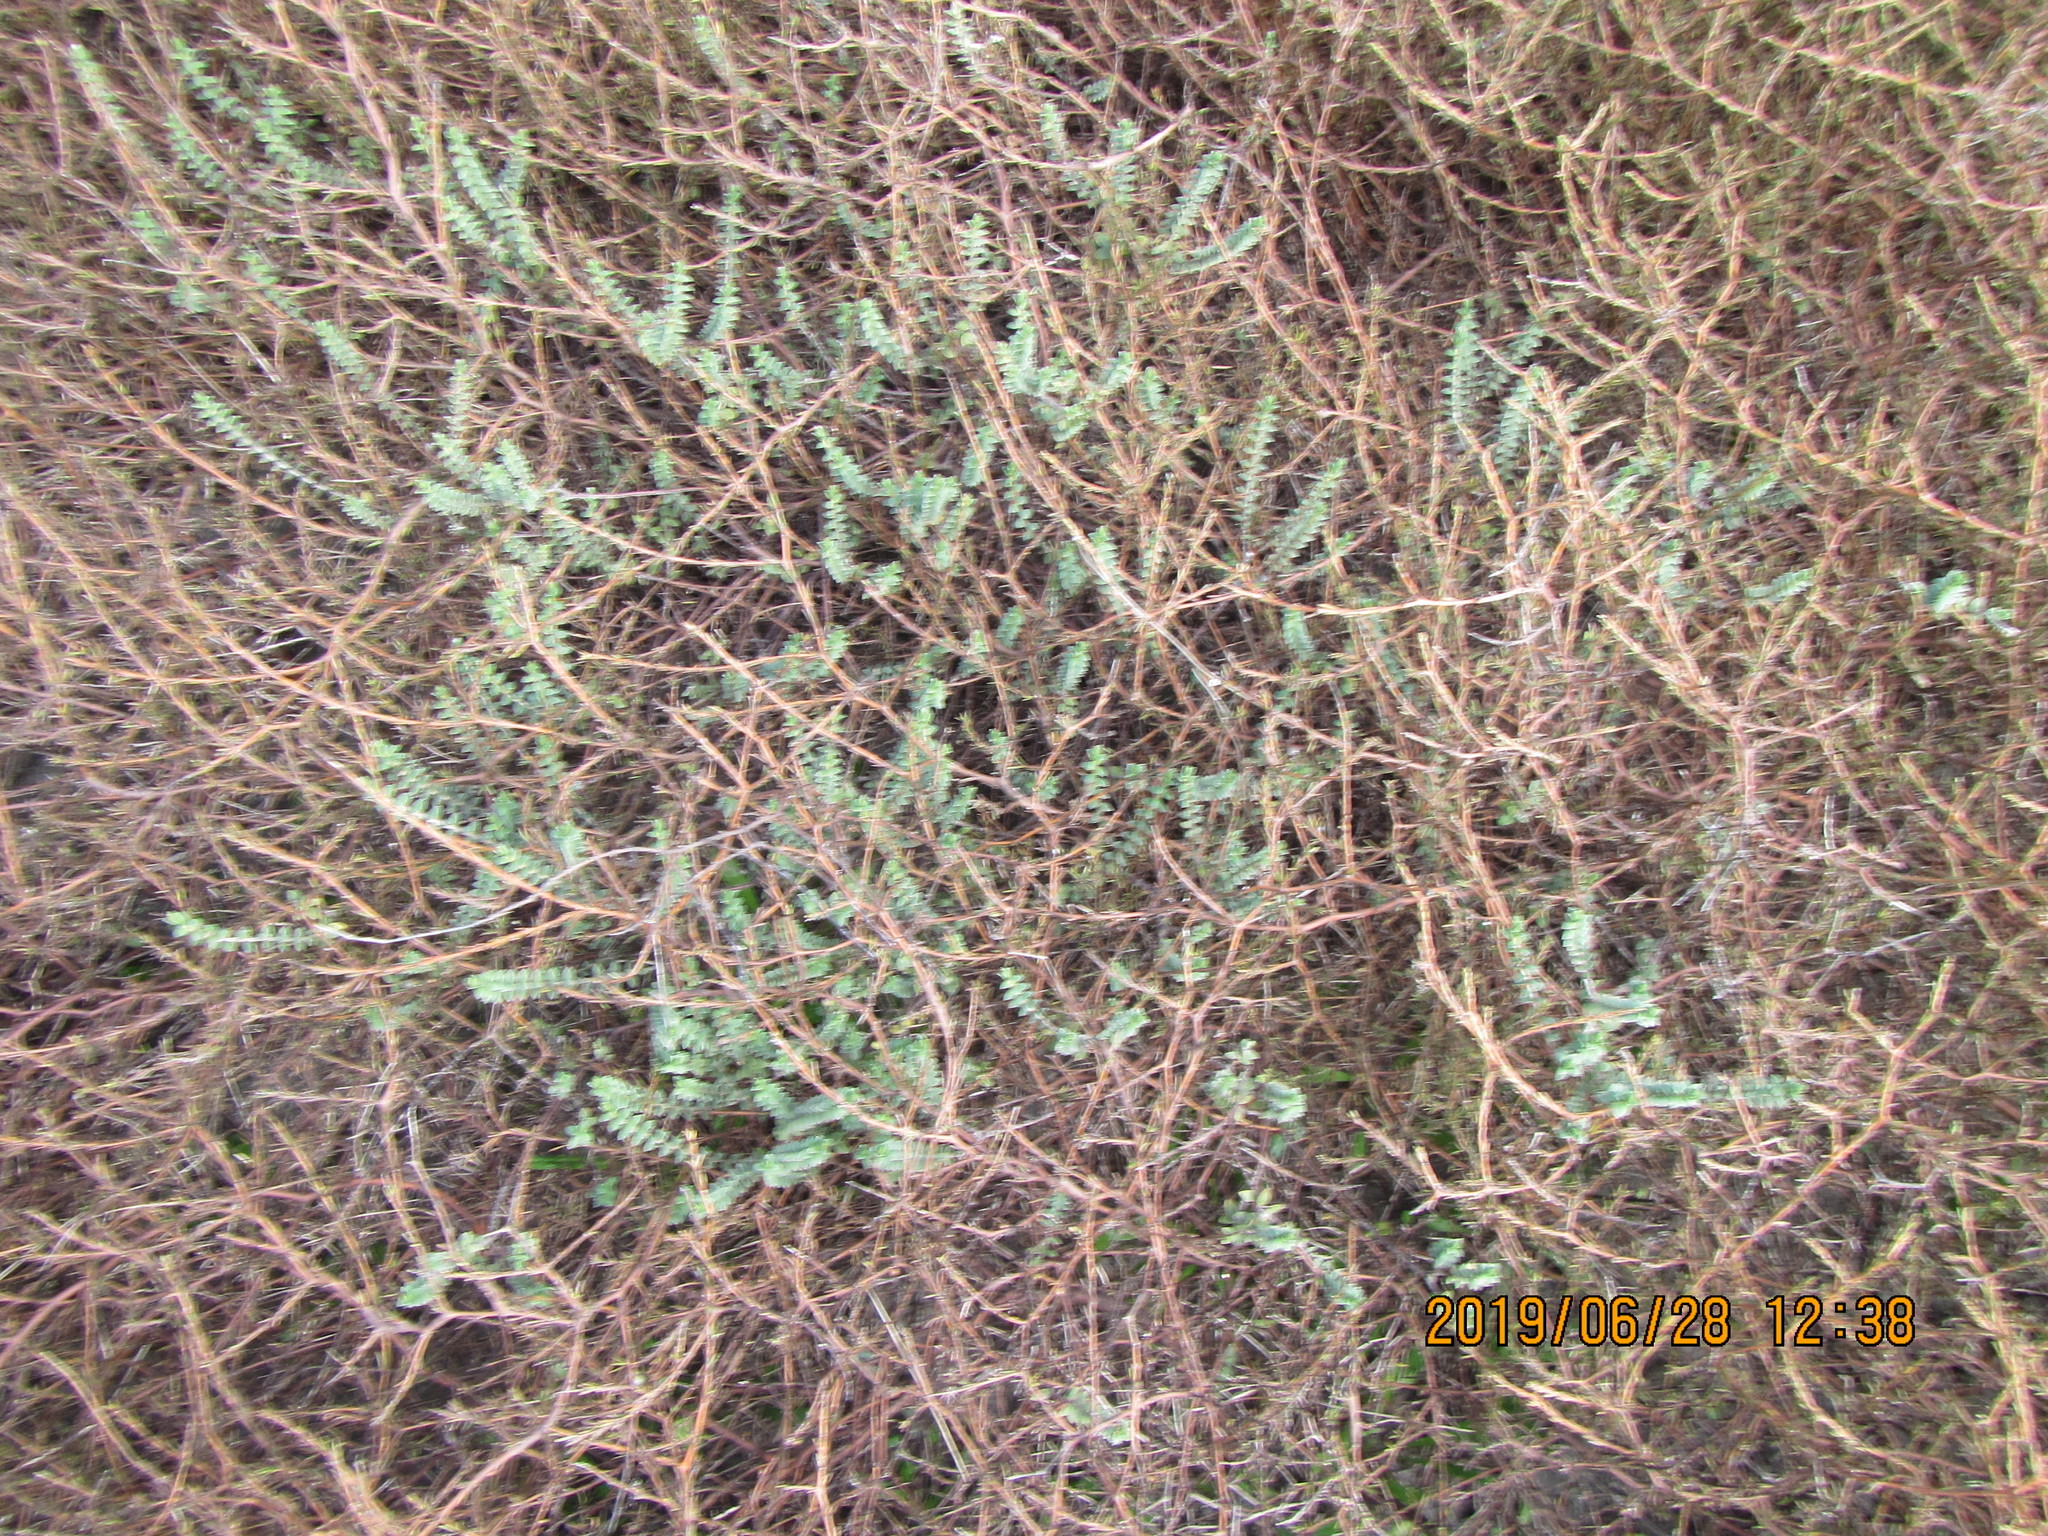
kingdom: Plantae
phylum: Tracheophyta
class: Magnoliopsida
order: Malvales
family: Thymelaeaceae
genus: Pimelea
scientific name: Pimelea villosa
